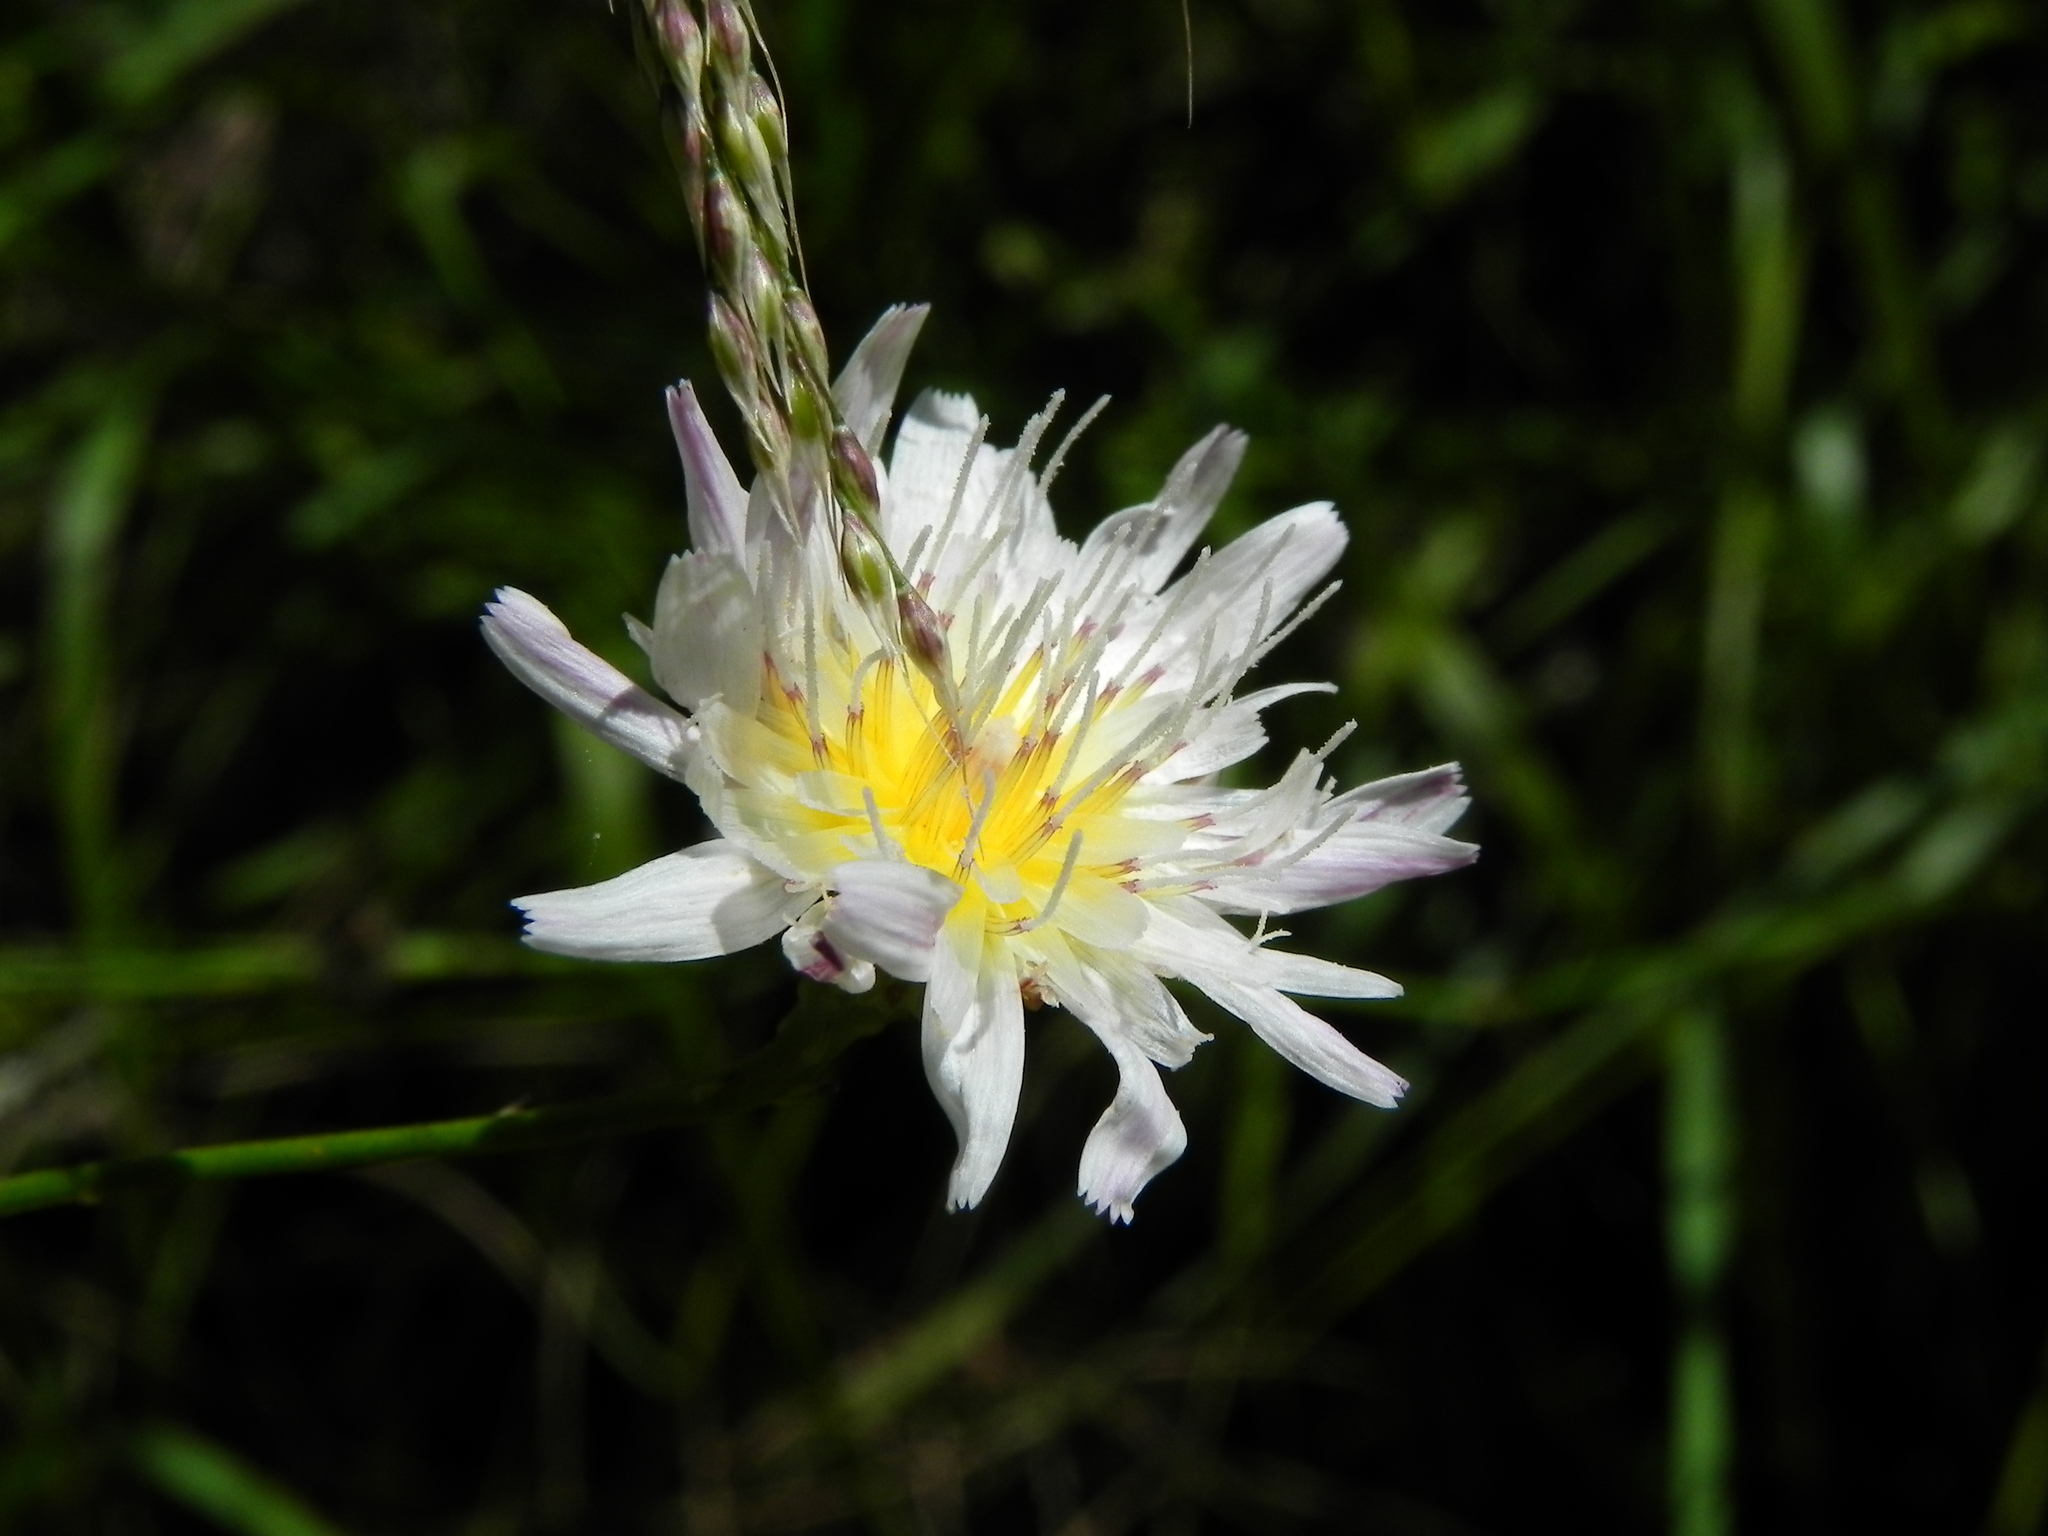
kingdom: Plantae
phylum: Tracheophyta
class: Magnoliopsida
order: Asterales
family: Asteraceae
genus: Malacothrix
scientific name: Malacothrix saxatilis
